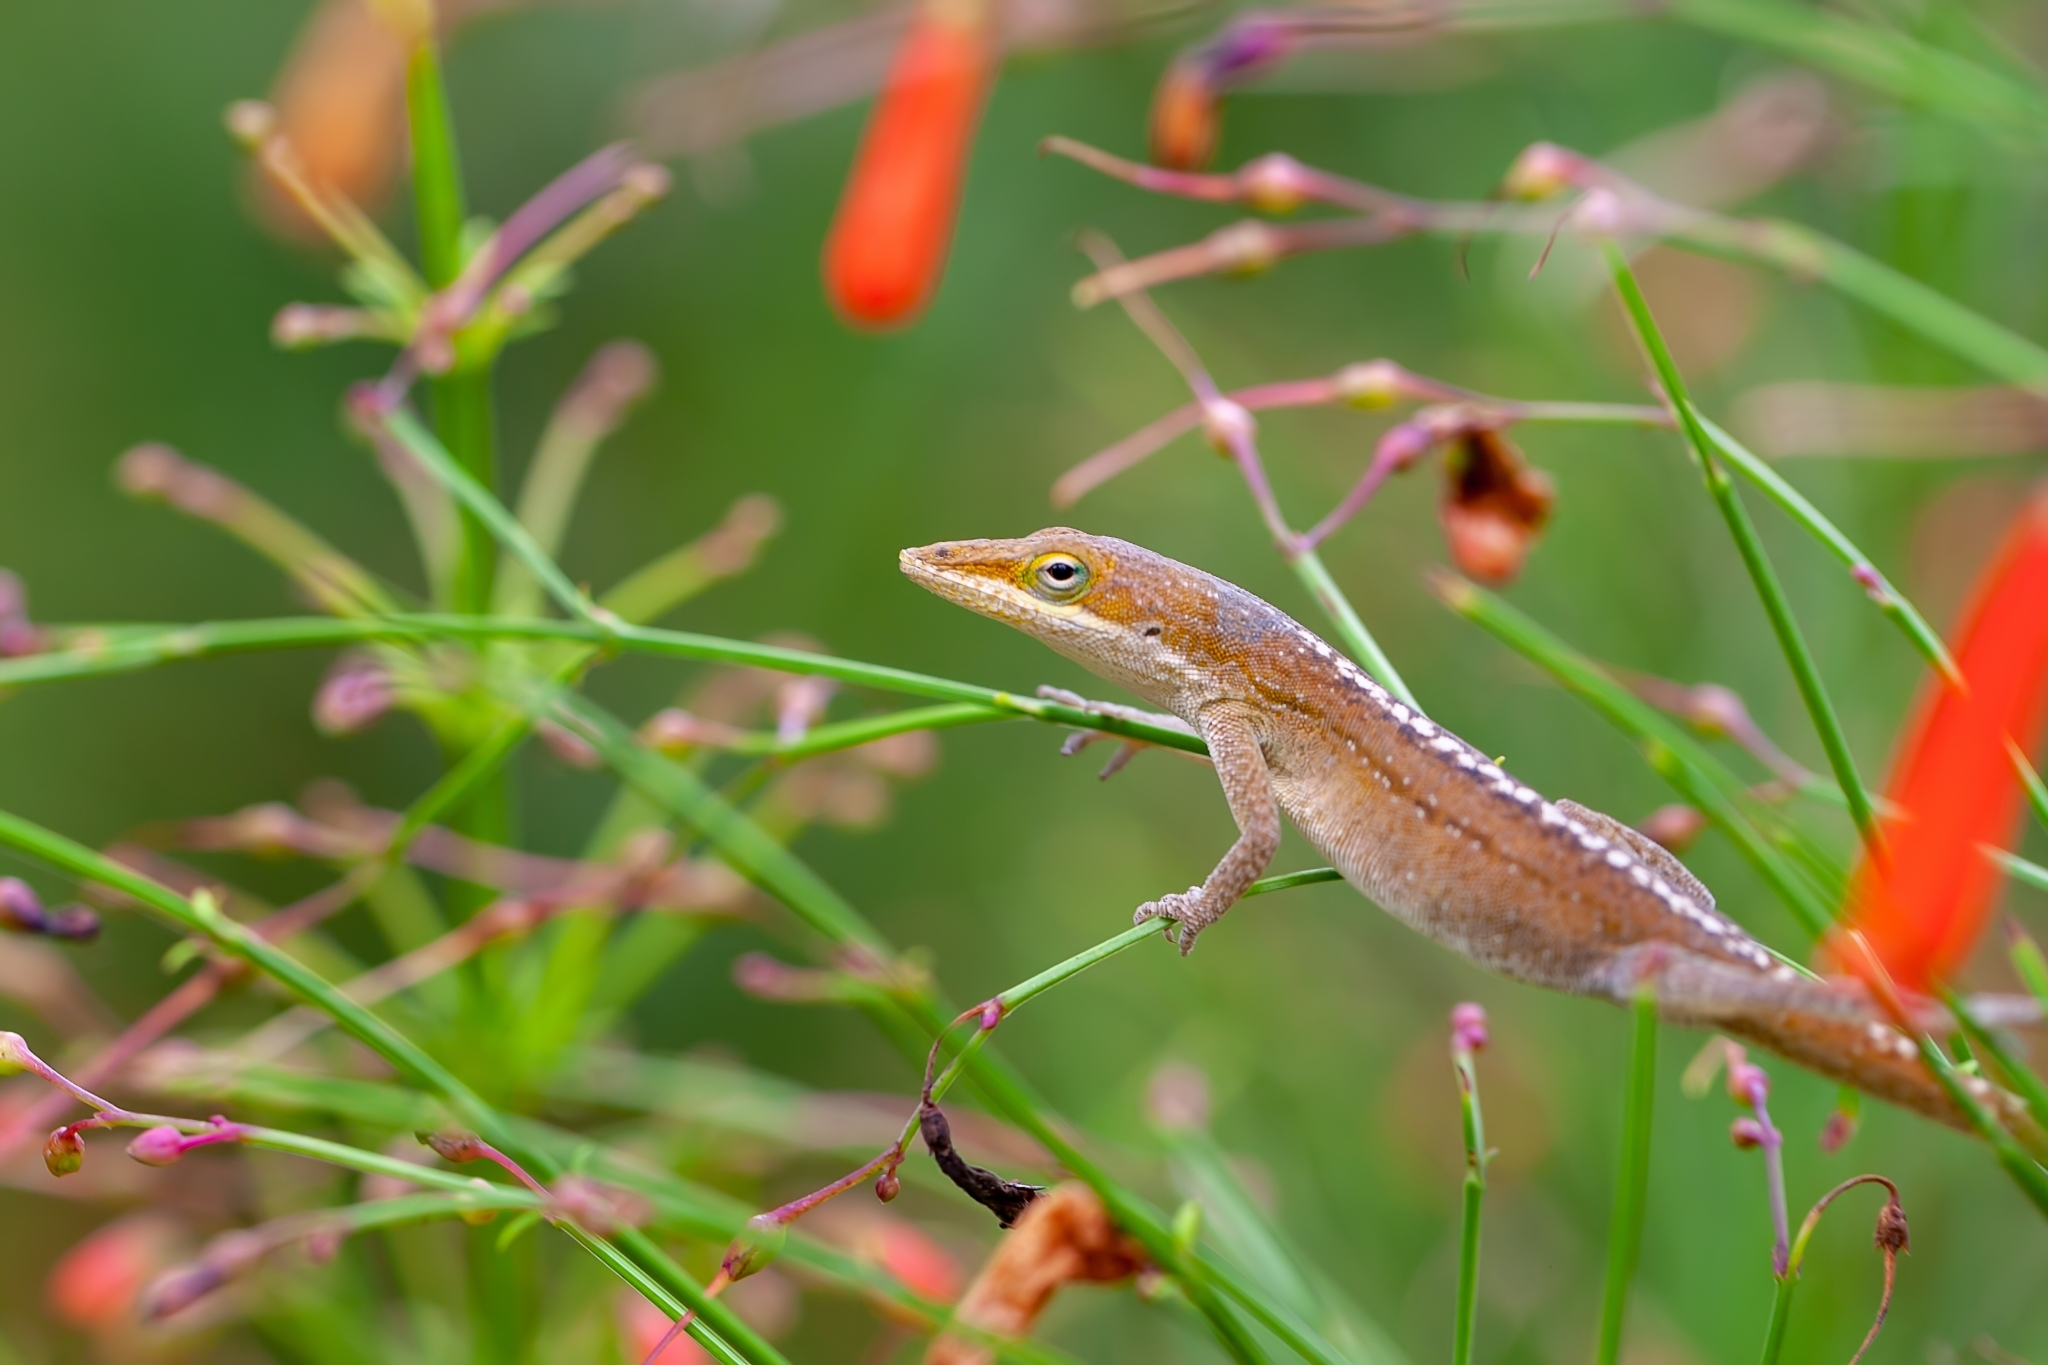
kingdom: Animalia
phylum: Chordata
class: Squamata
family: Dactyloidae
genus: Anolis
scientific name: Anolis carolinensis
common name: Green anole
